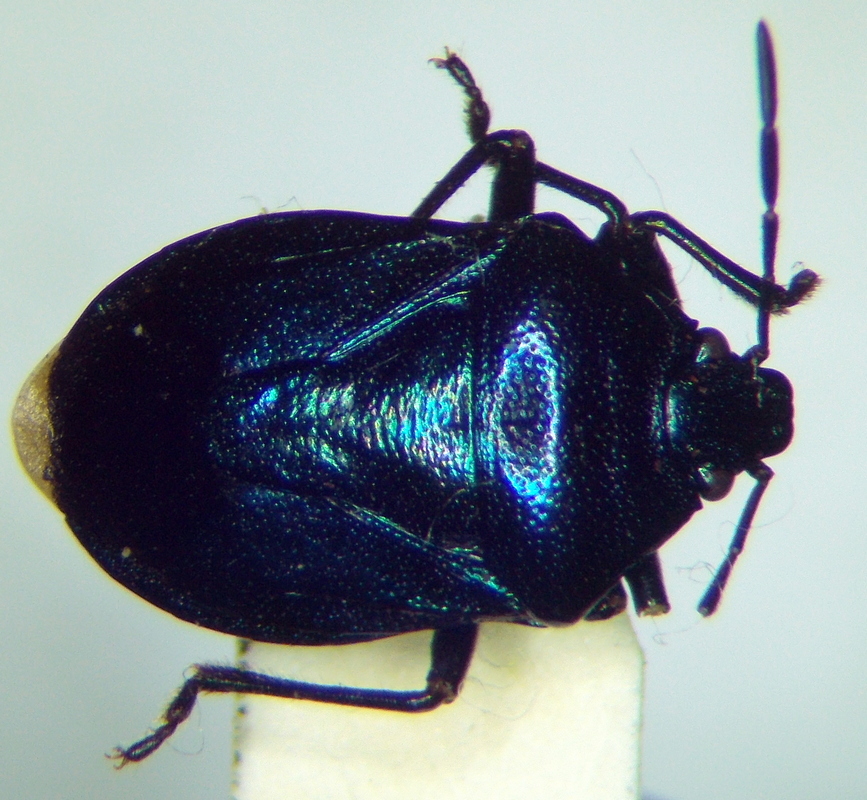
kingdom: Animalia
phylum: Arthropoda
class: Insecta
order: Hemiptera
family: Pentatomidae
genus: Zicrona
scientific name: Zicrona caerulea
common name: Blue shieldbug
